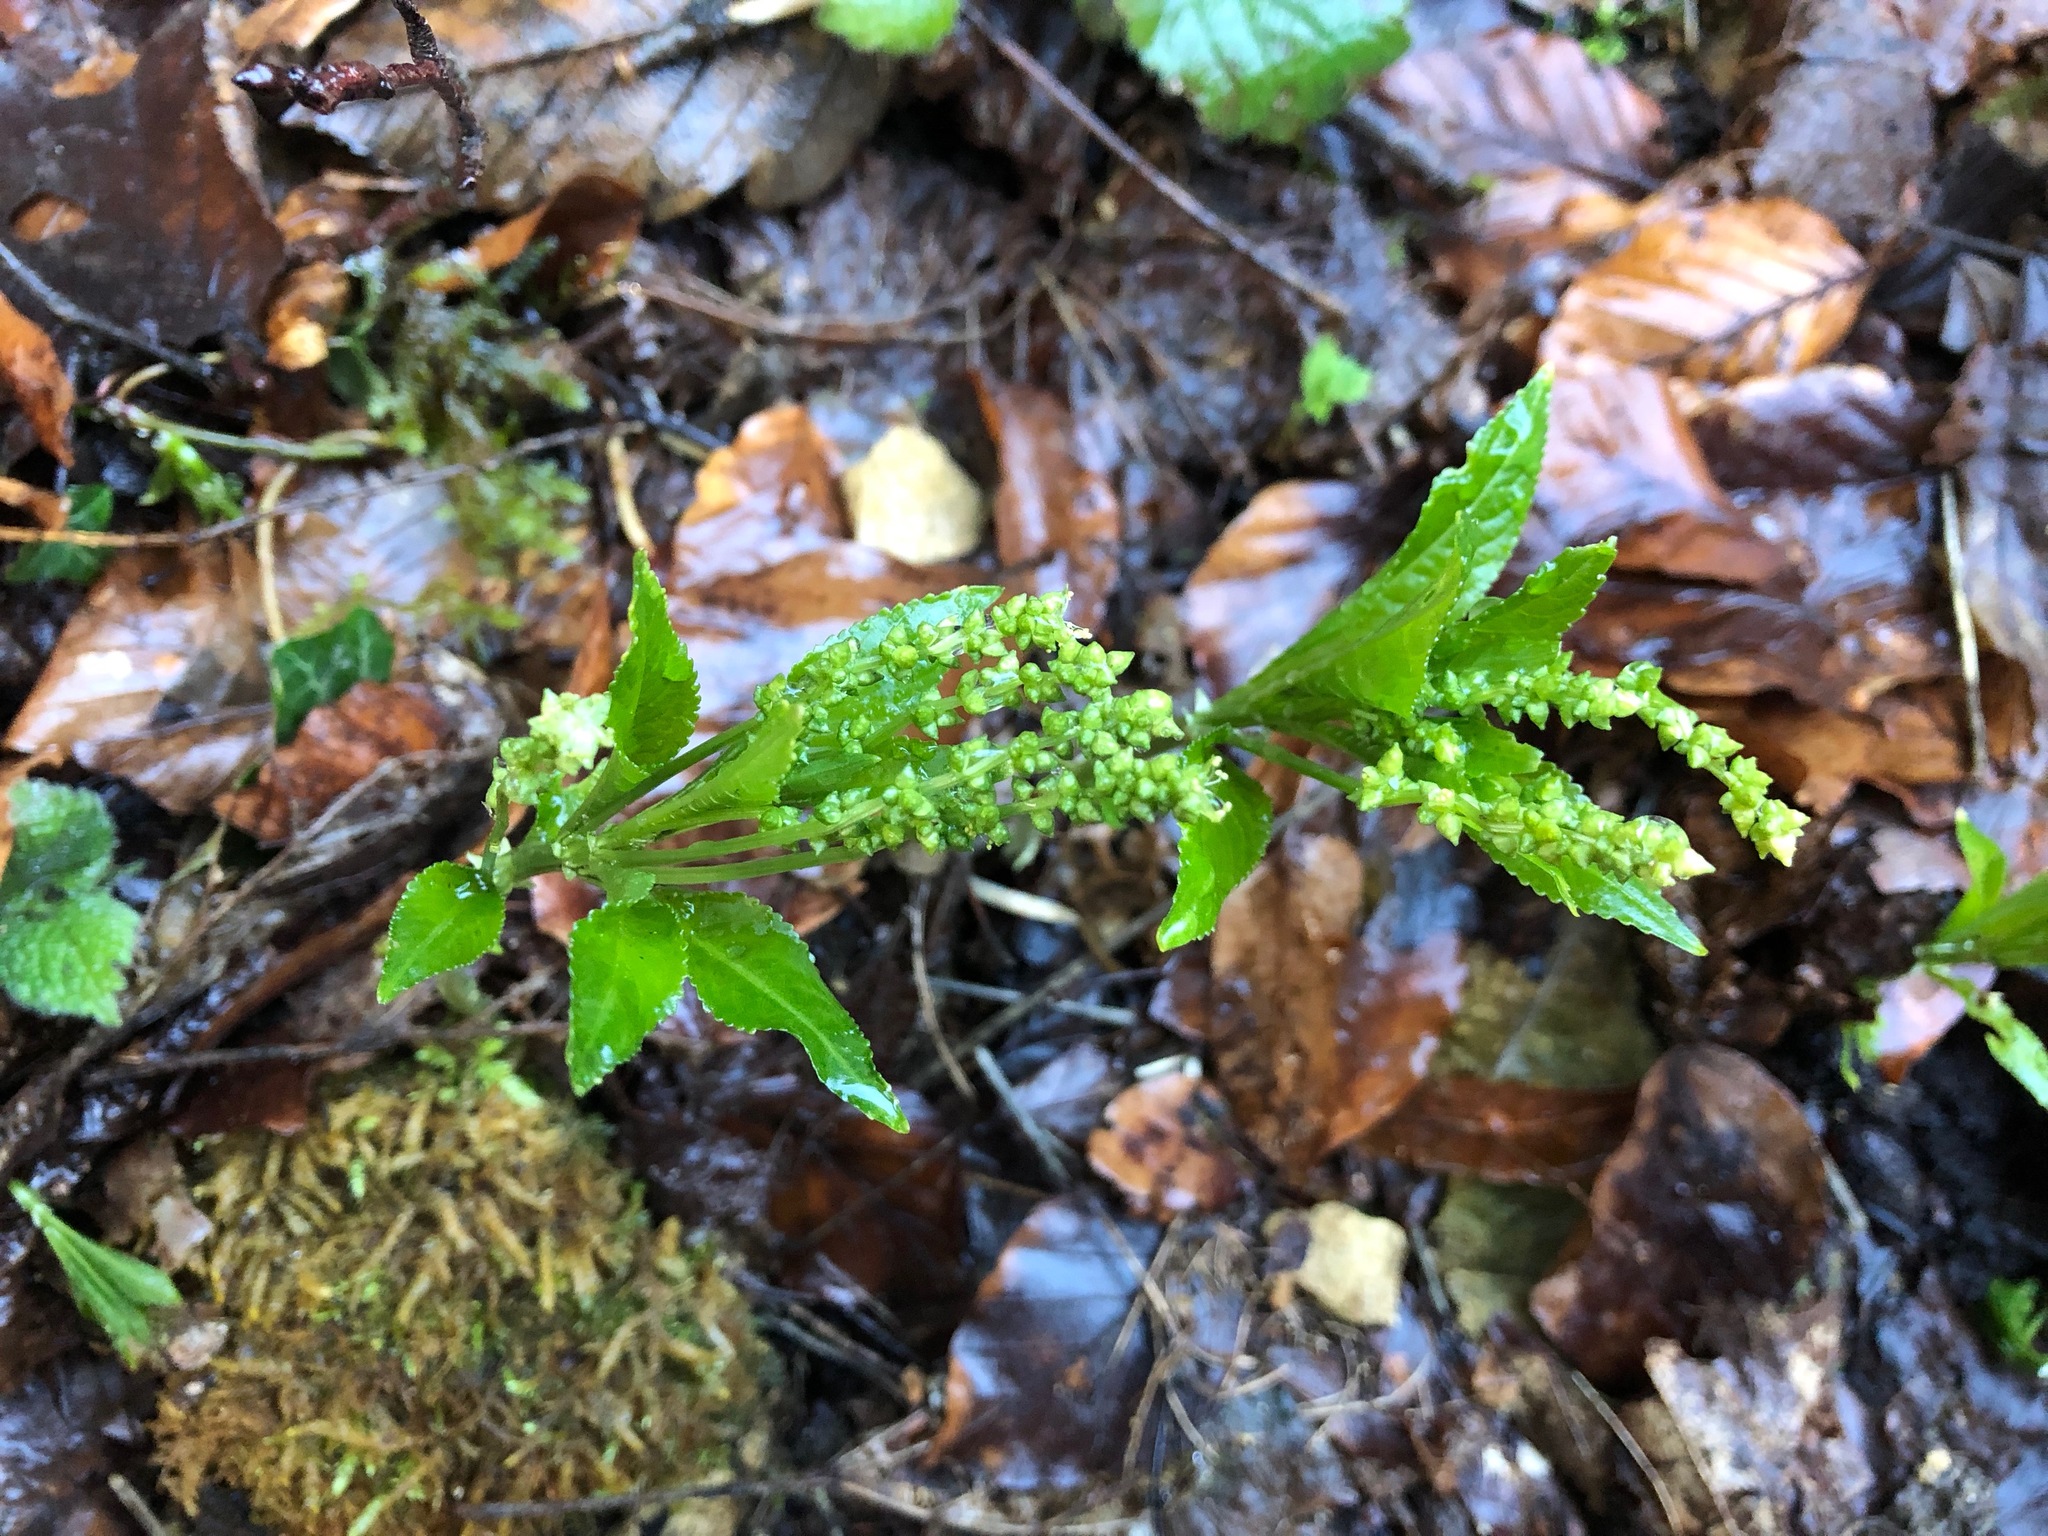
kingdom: Plantae
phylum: Tracheophyta
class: Magnoliopsida
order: Malpighiales
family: Euphorbiaceae
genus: Mercurialis
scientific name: Mercurialis perennis
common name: Dog mercury
